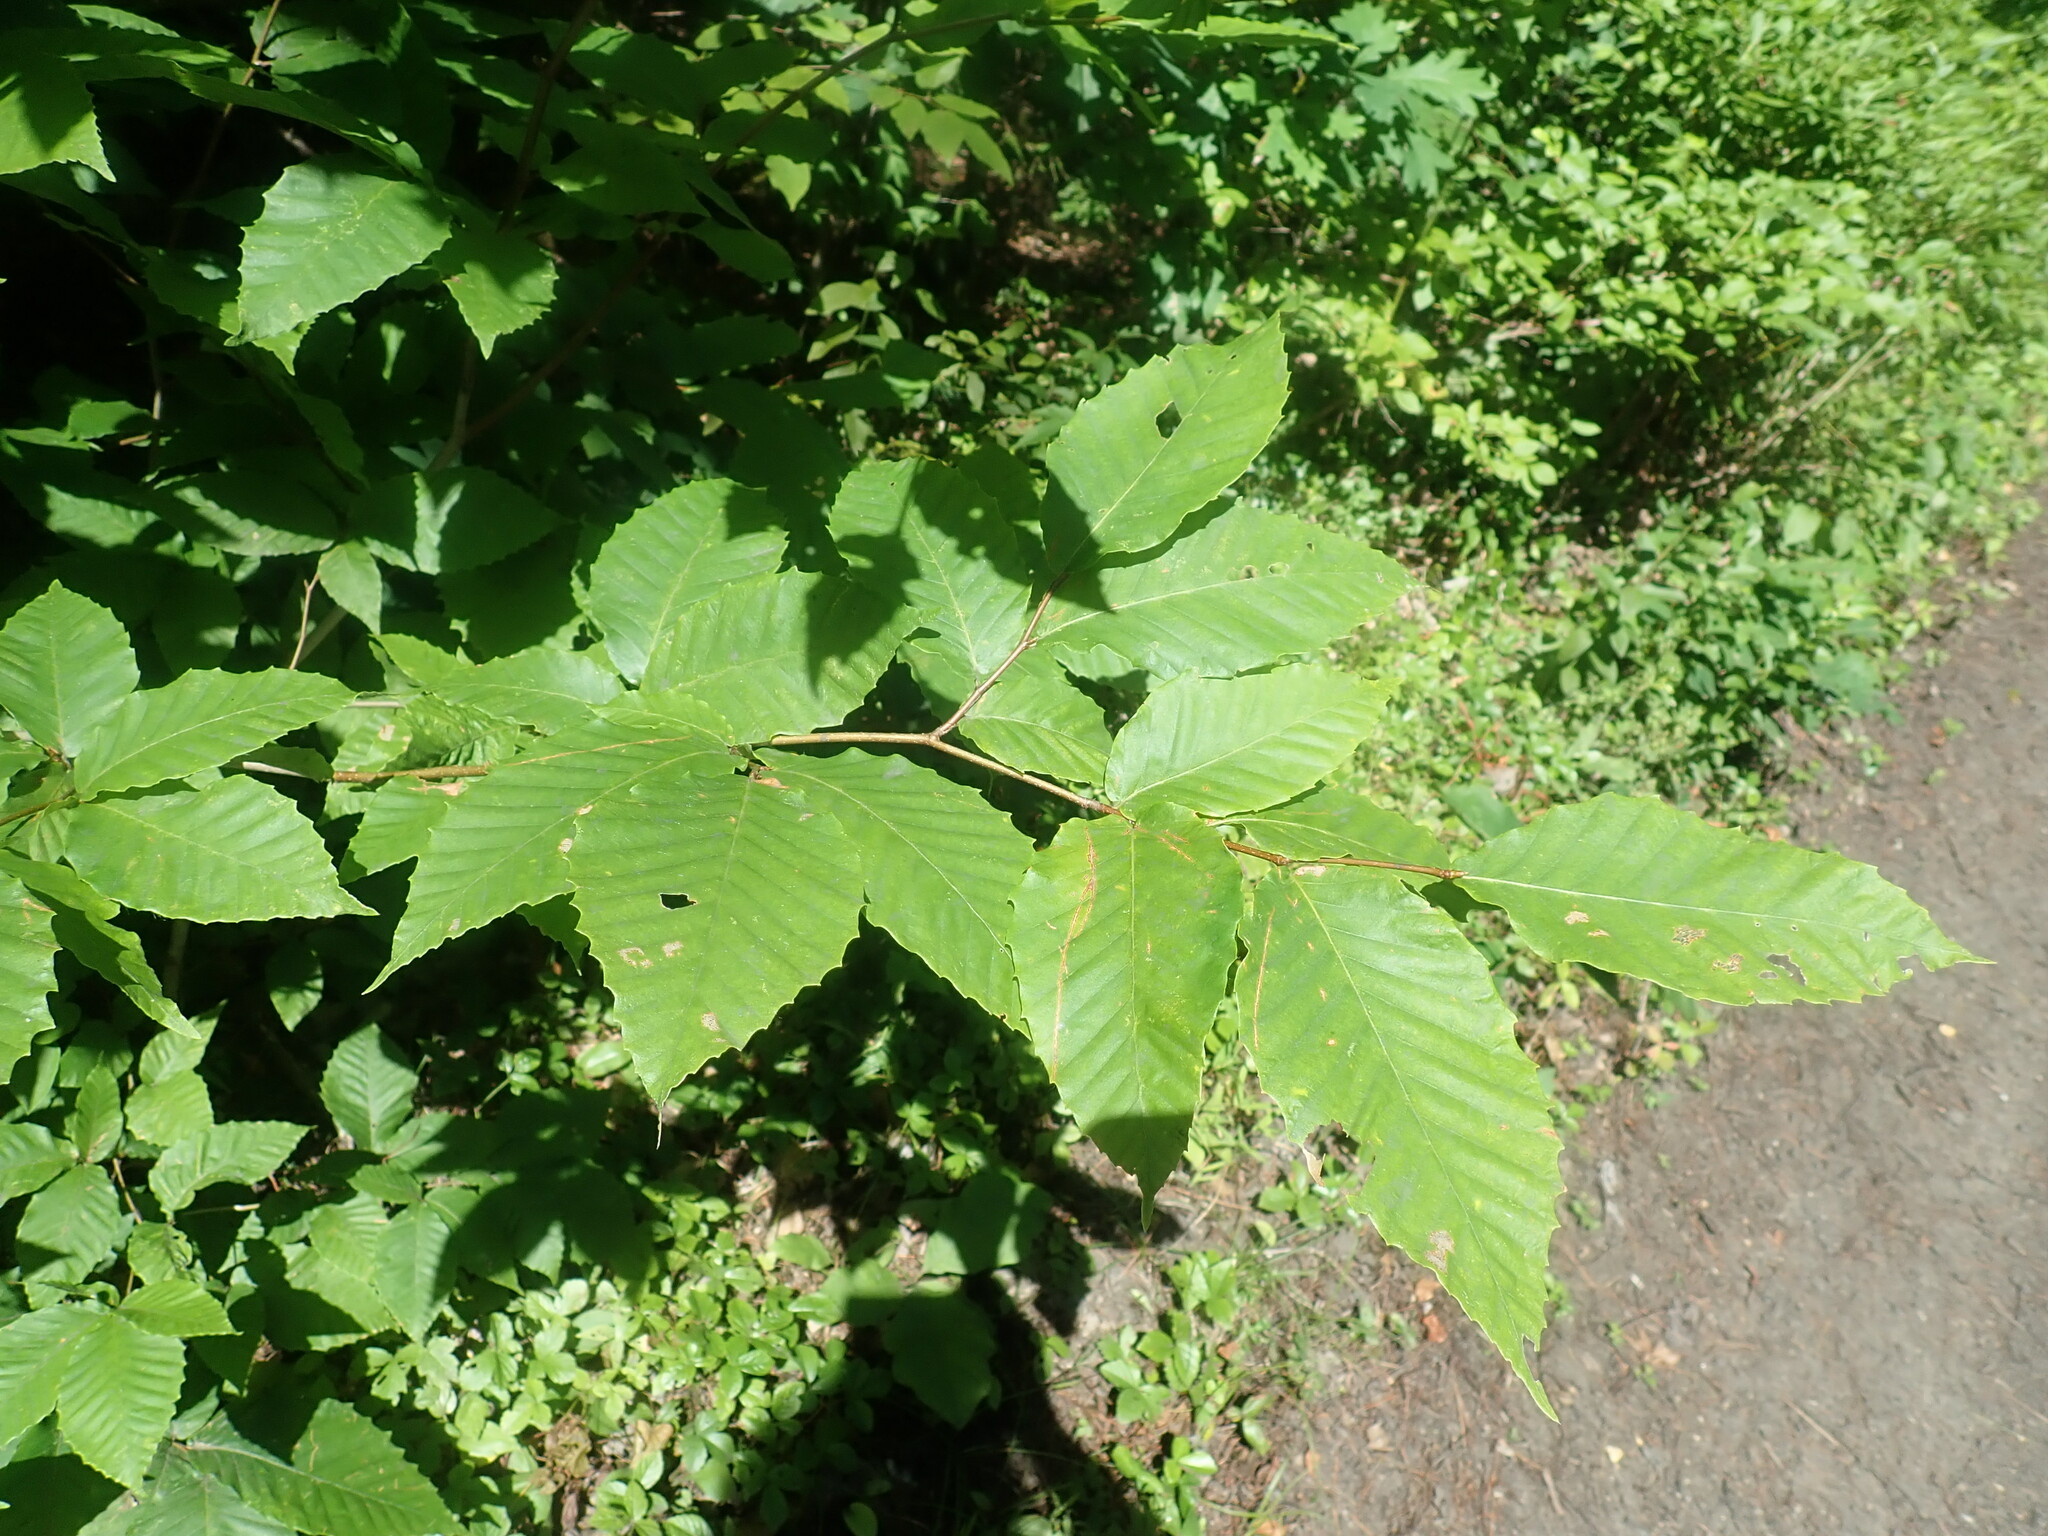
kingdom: Plantae
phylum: Tracheophyta
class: Magnoliopsida
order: Fagales
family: Fagaceae
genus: Fagus
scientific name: Fagus grandifolia
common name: American beech
